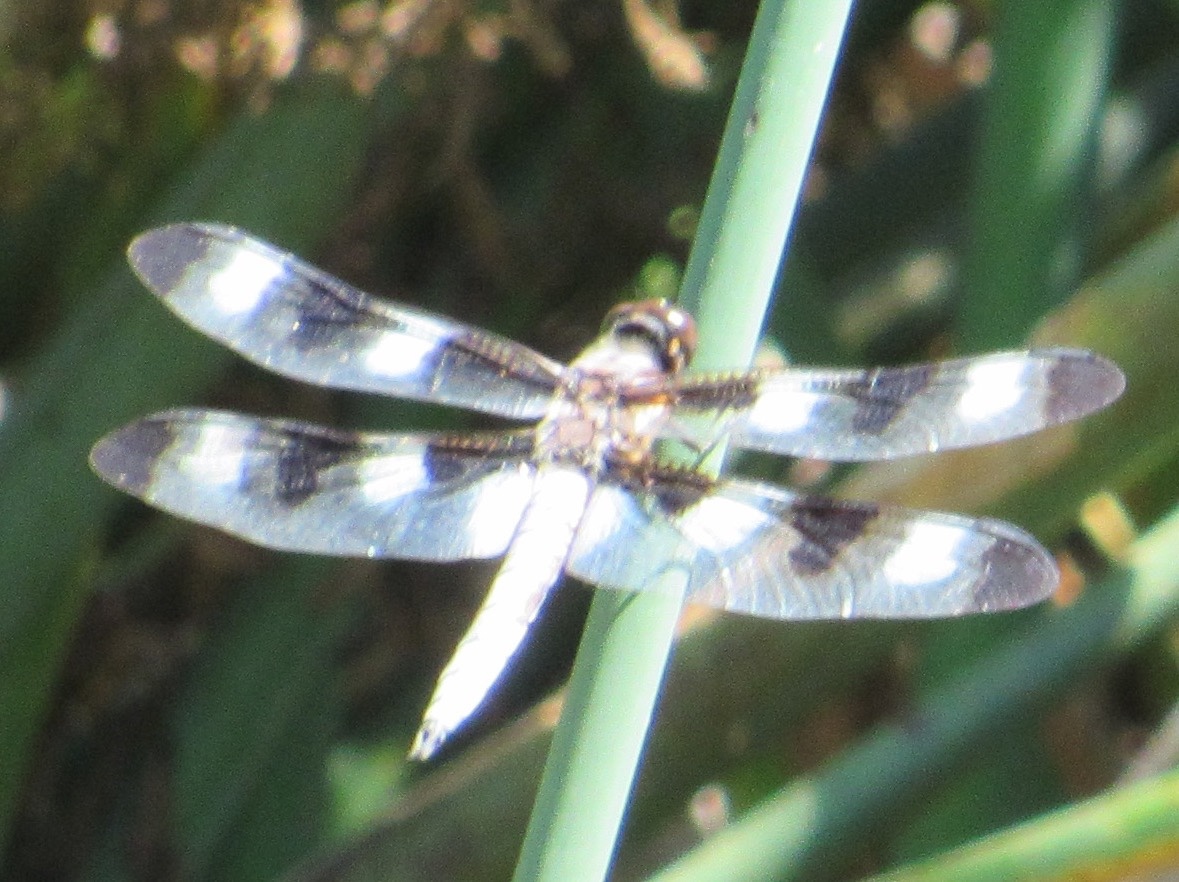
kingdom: Animalia
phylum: Arthropoda
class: Insecta
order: Odonata
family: Libellulidae
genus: Libellula
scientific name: Libellula pulchella
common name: Twelve-spotted skimmer
